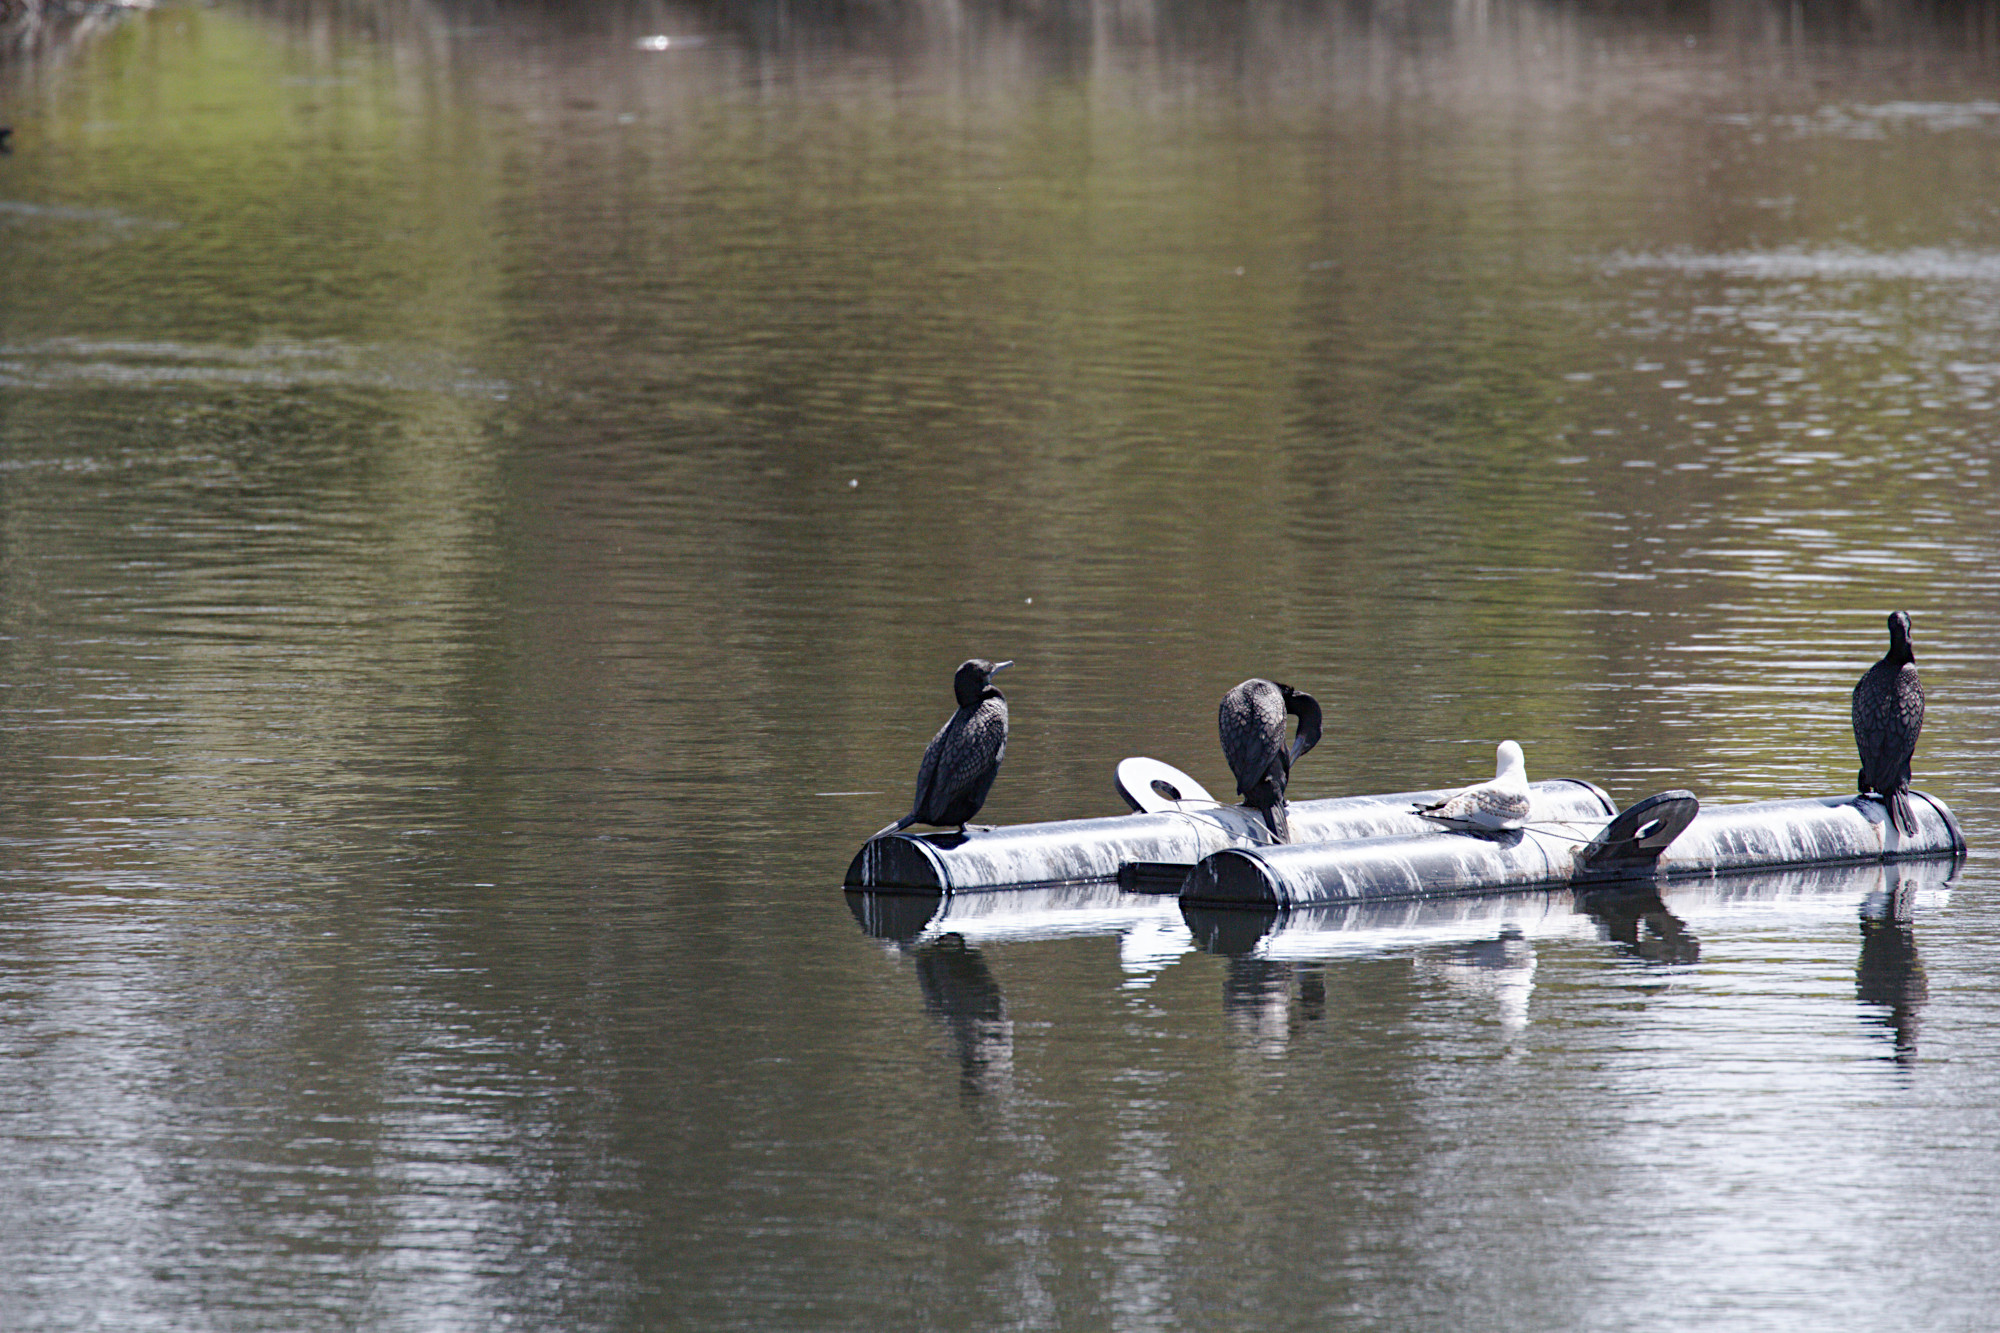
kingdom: Animalia
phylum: Chordata
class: Aves
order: Suliformes
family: Phalacrocoracidae
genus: Phalacrocorax
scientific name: Phalacrocorax sulcirostris
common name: Little black cormorant
